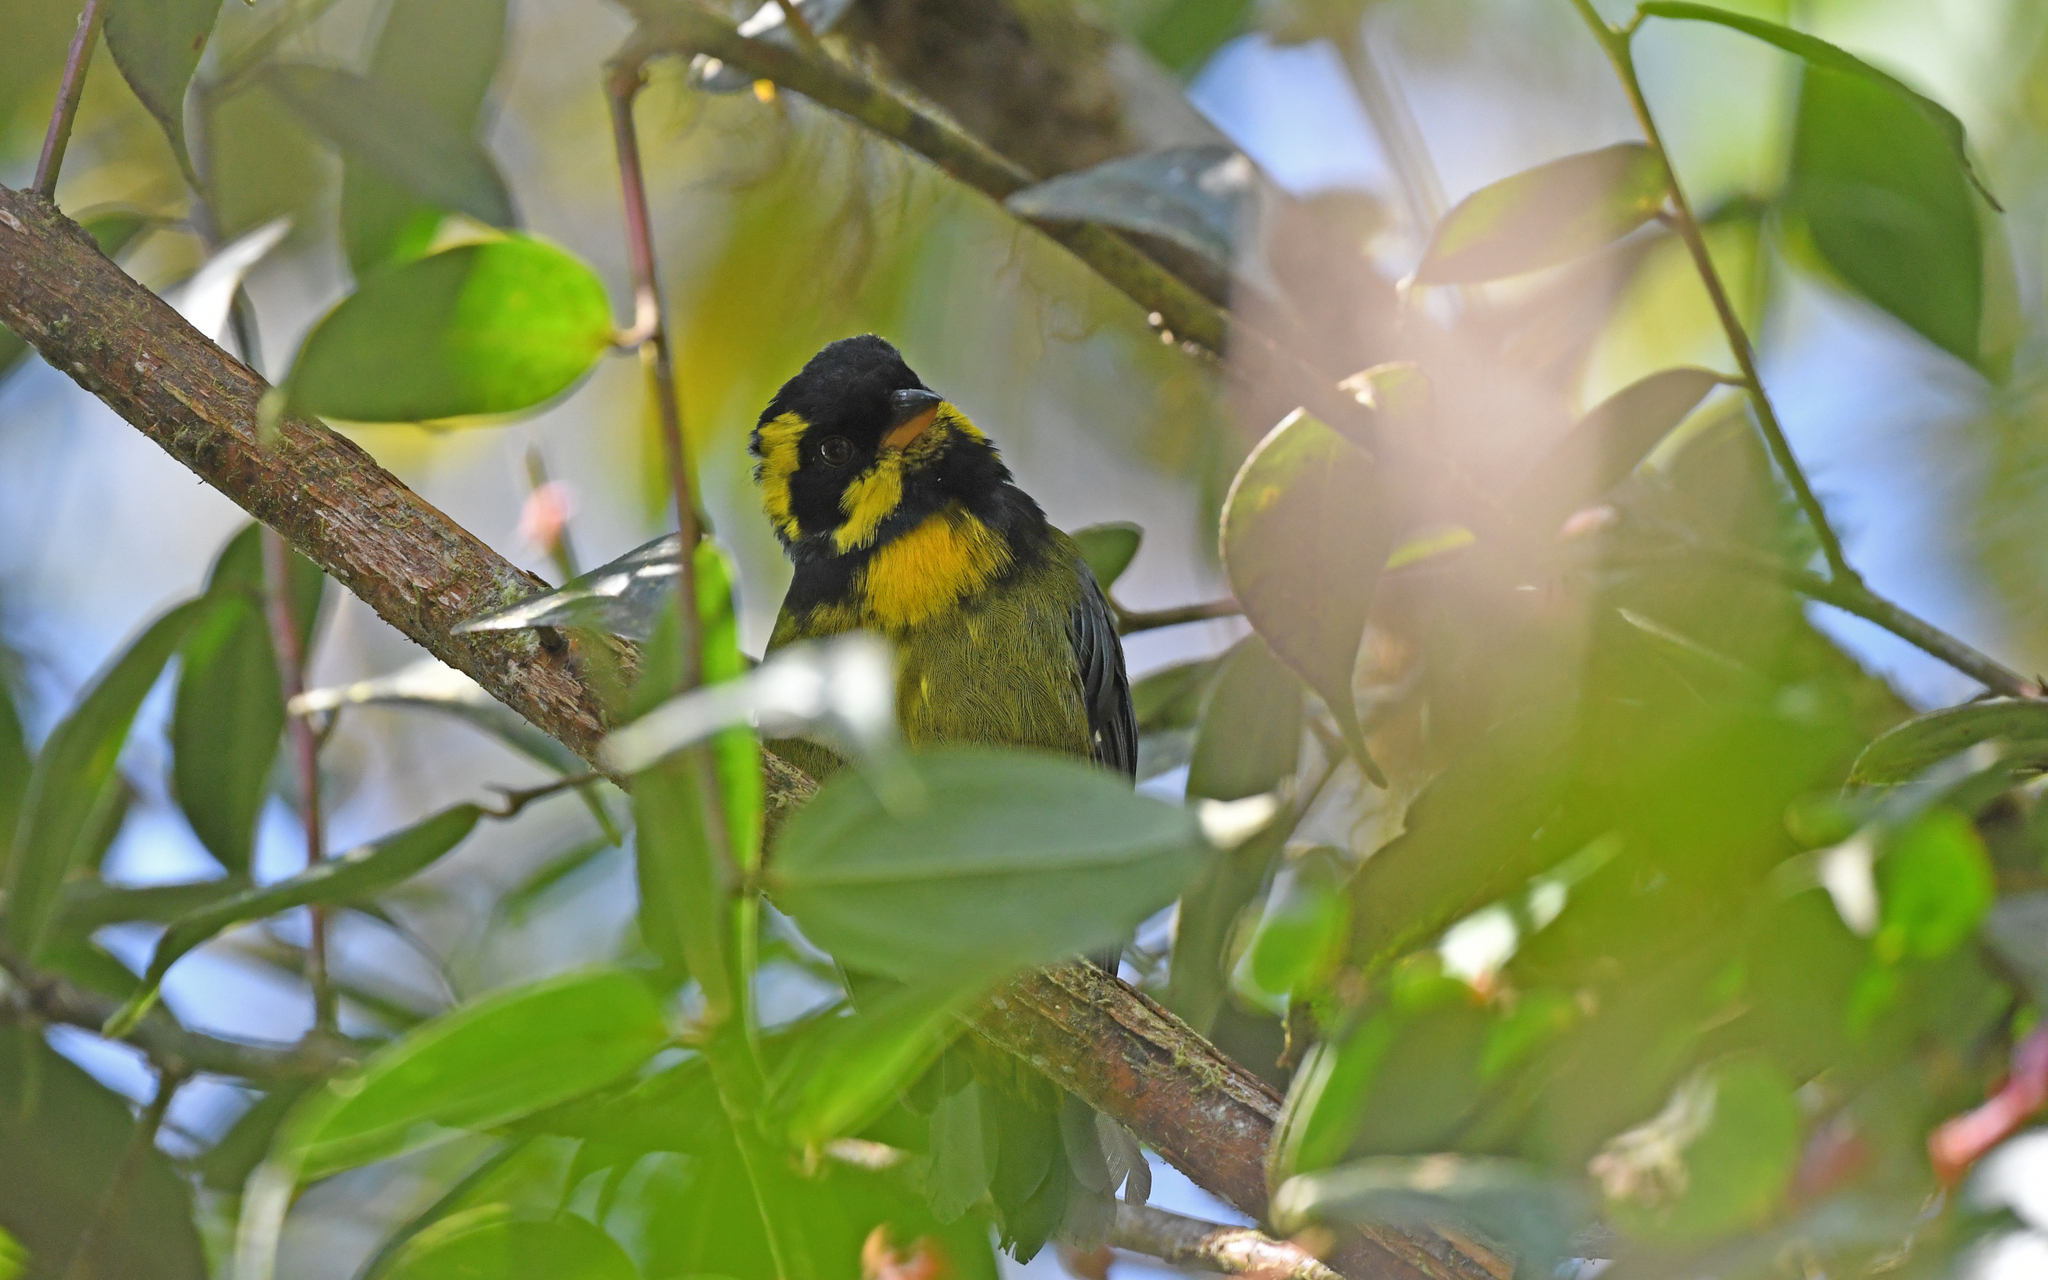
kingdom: Animalia
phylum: Chordata
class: Aves
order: Passeriformes
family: Thraupidae
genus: Bangsia
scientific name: Bangsia aureocincta
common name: Gold-ringed tanager
